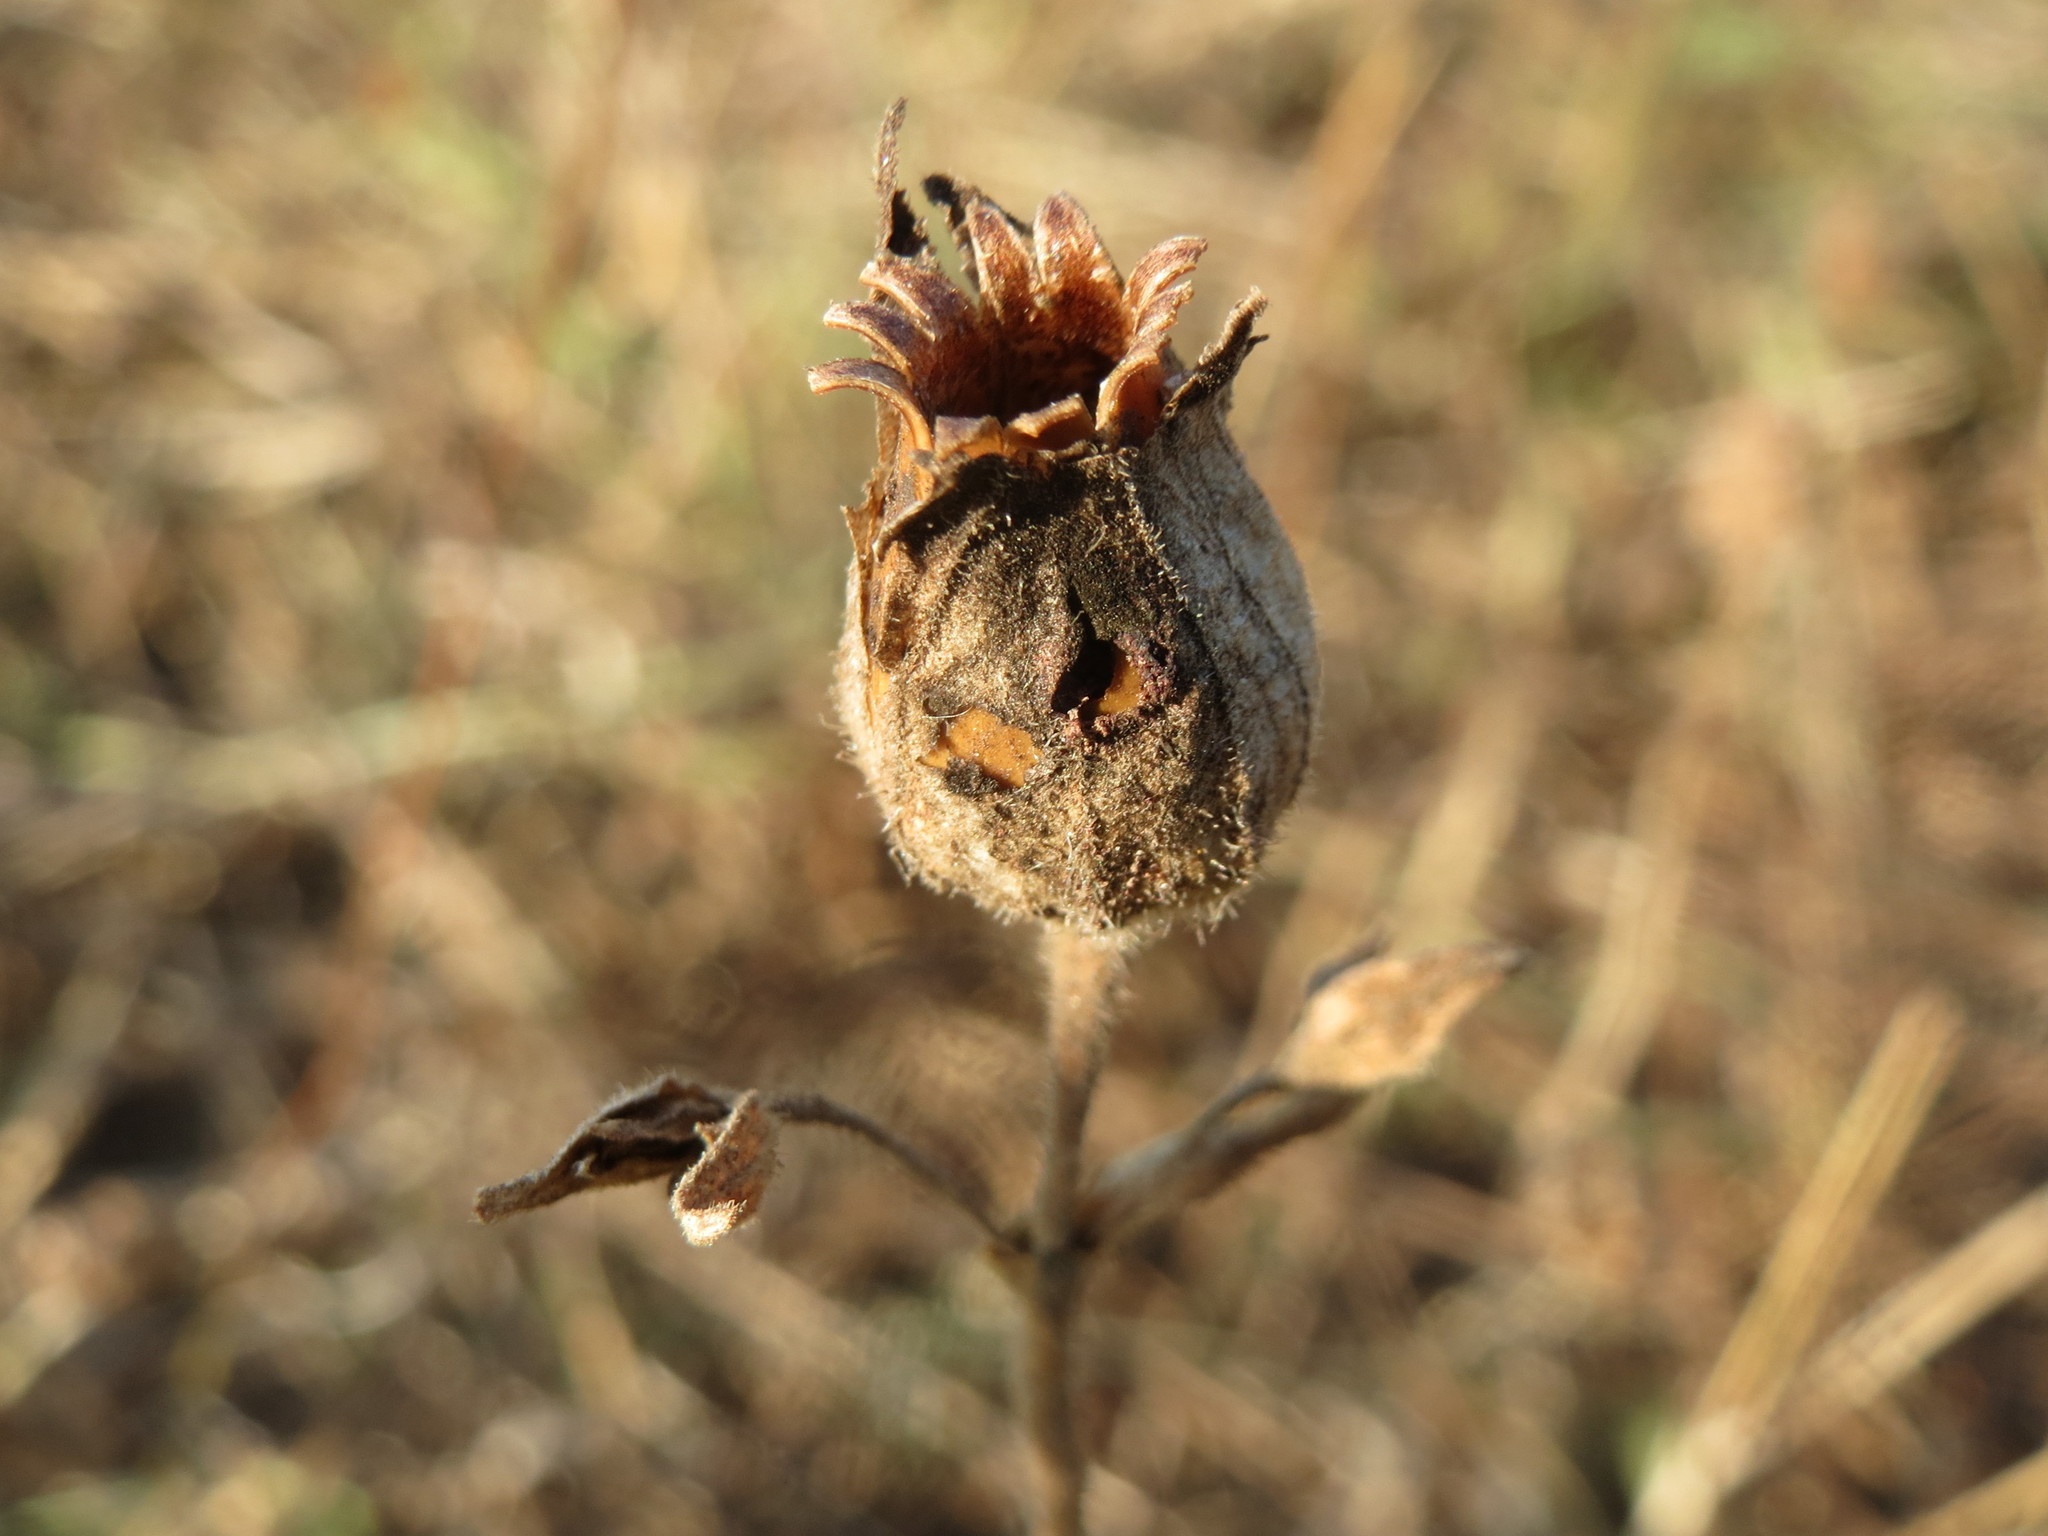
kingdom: Plantae
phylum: Tracheophyta
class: Magnoliopsida
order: Caryophyllales
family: Caryophyllaceae
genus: Silene
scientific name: Silene latifolia
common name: White campion
